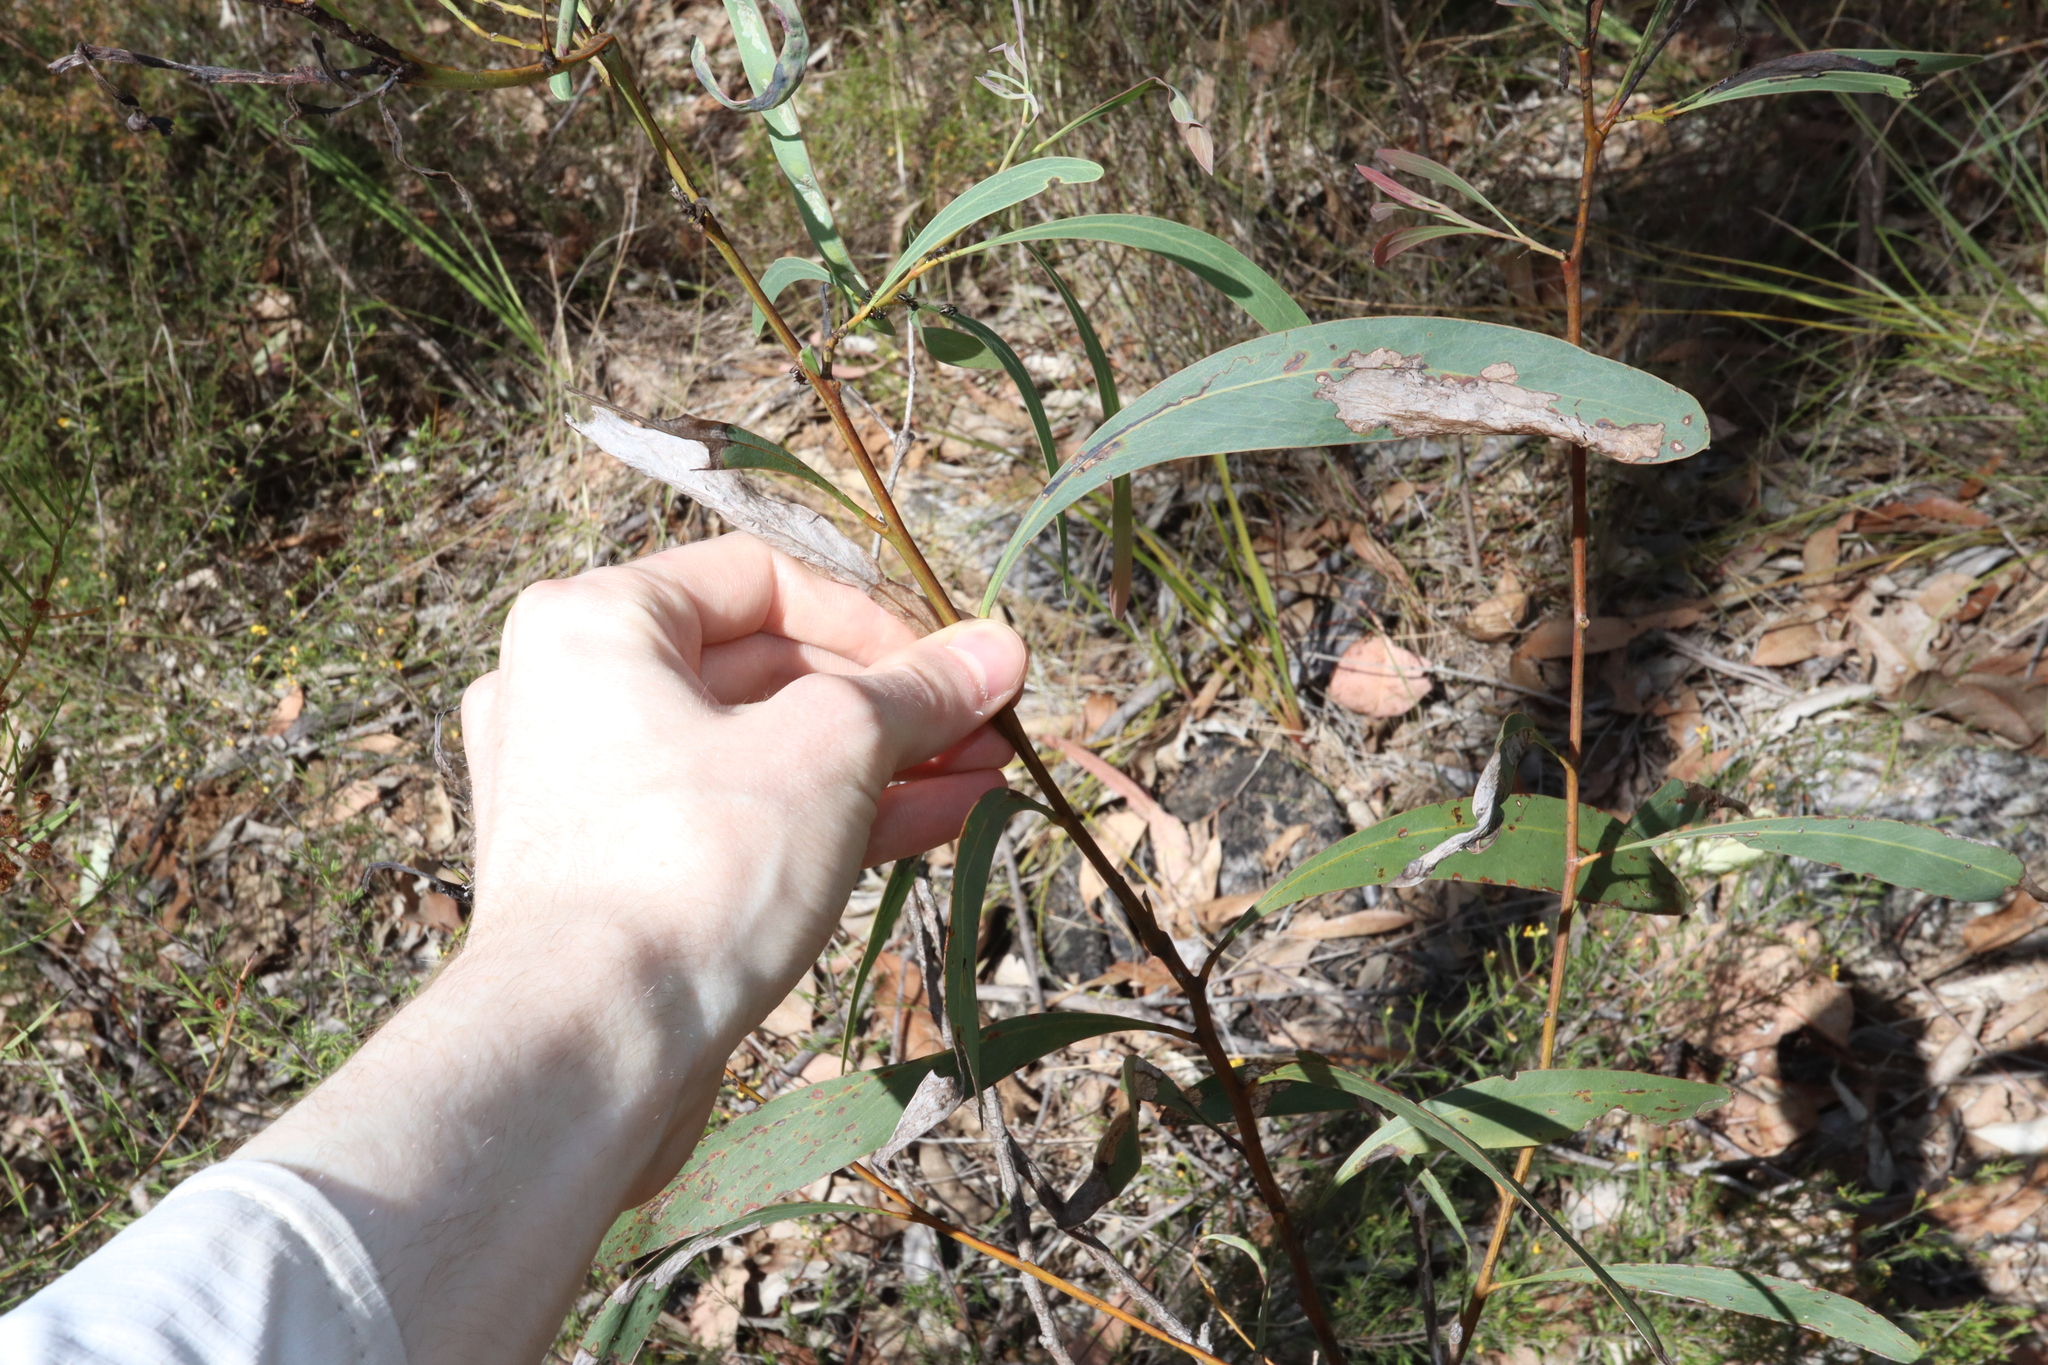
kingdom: Plantae
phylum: Tracheophyta
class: Magnoliopsida
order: Fabales
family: Fabaceae
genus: Acacia
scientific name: Acacia falcata
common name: Burra acacia
